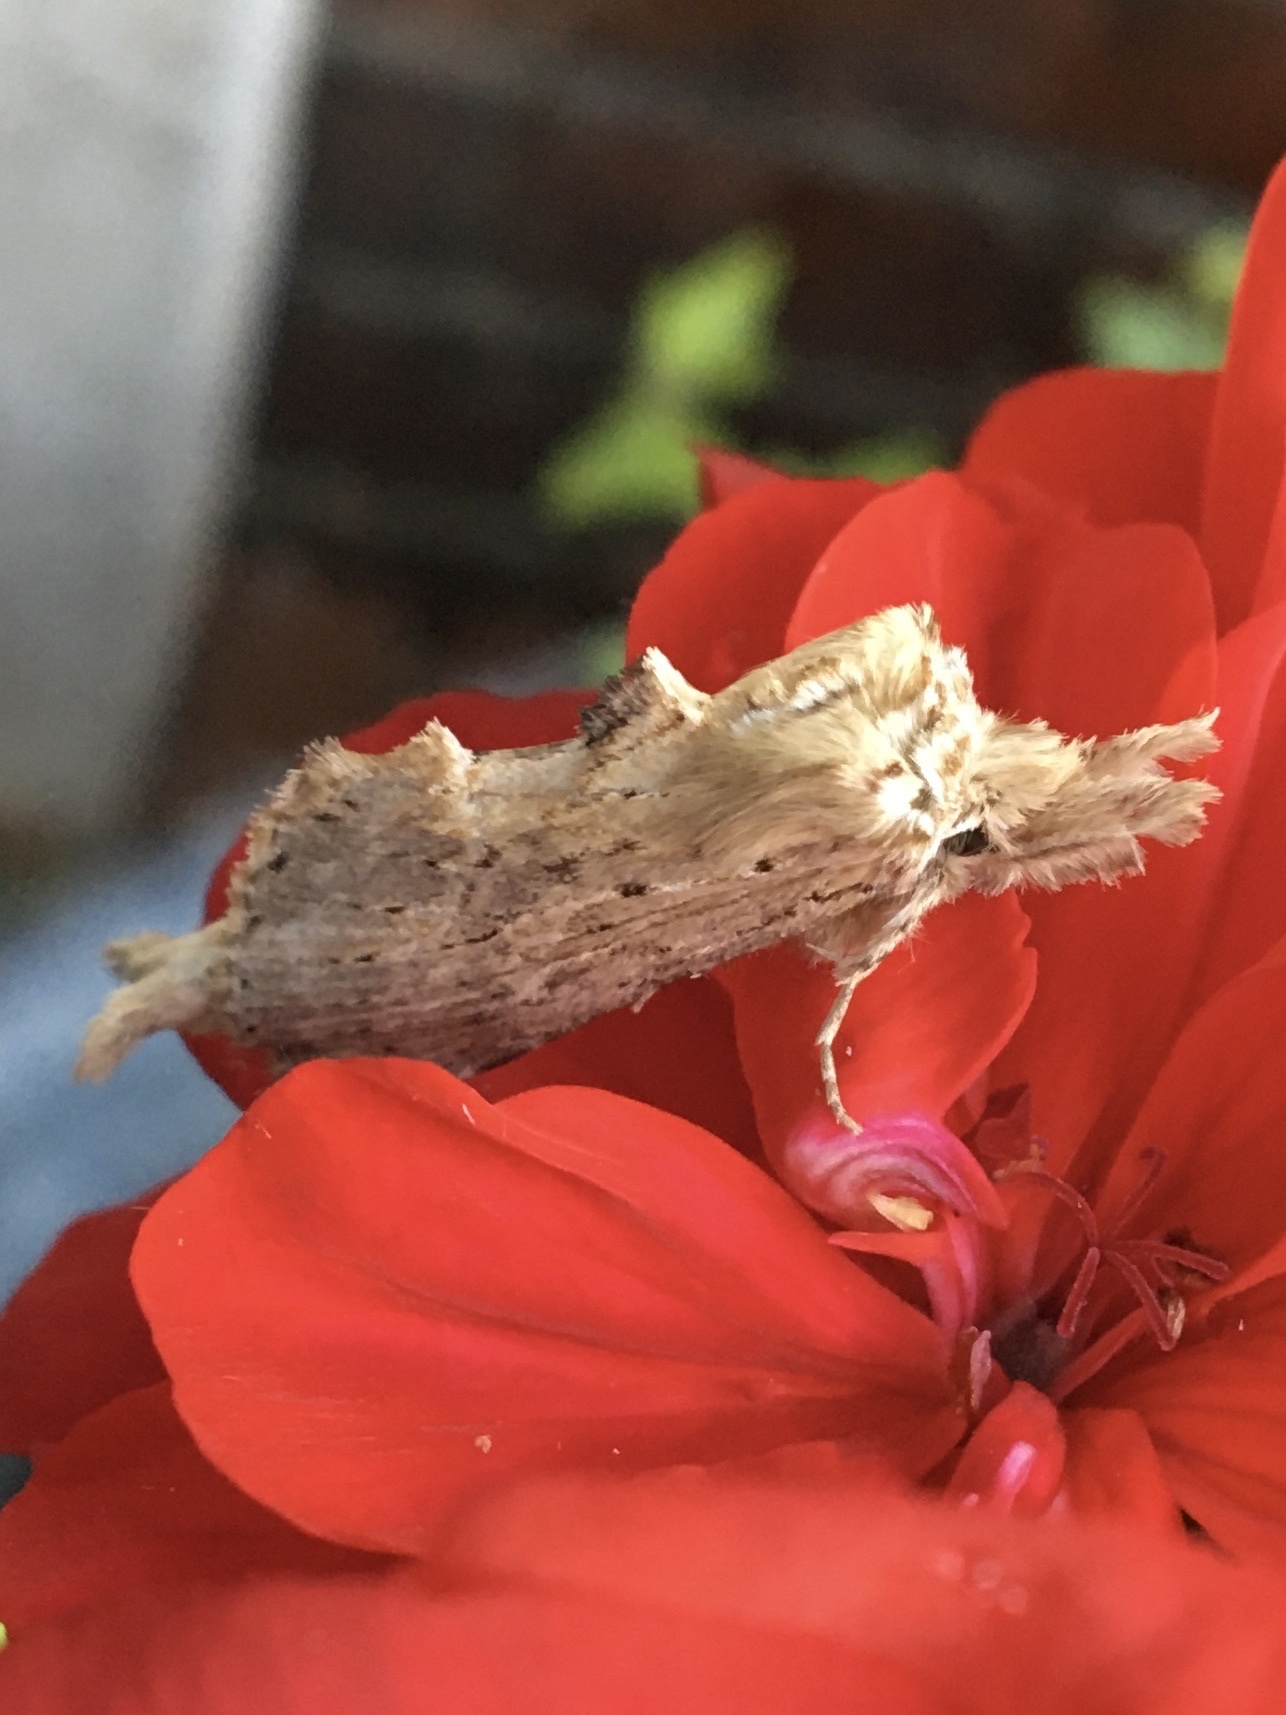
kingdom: Animalia
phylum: Arthropoda
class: Insecta
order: Lepidoptera
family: Notodontidae
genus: Pterostoma
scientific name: Pterostoma palpina
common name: Pale prominent
